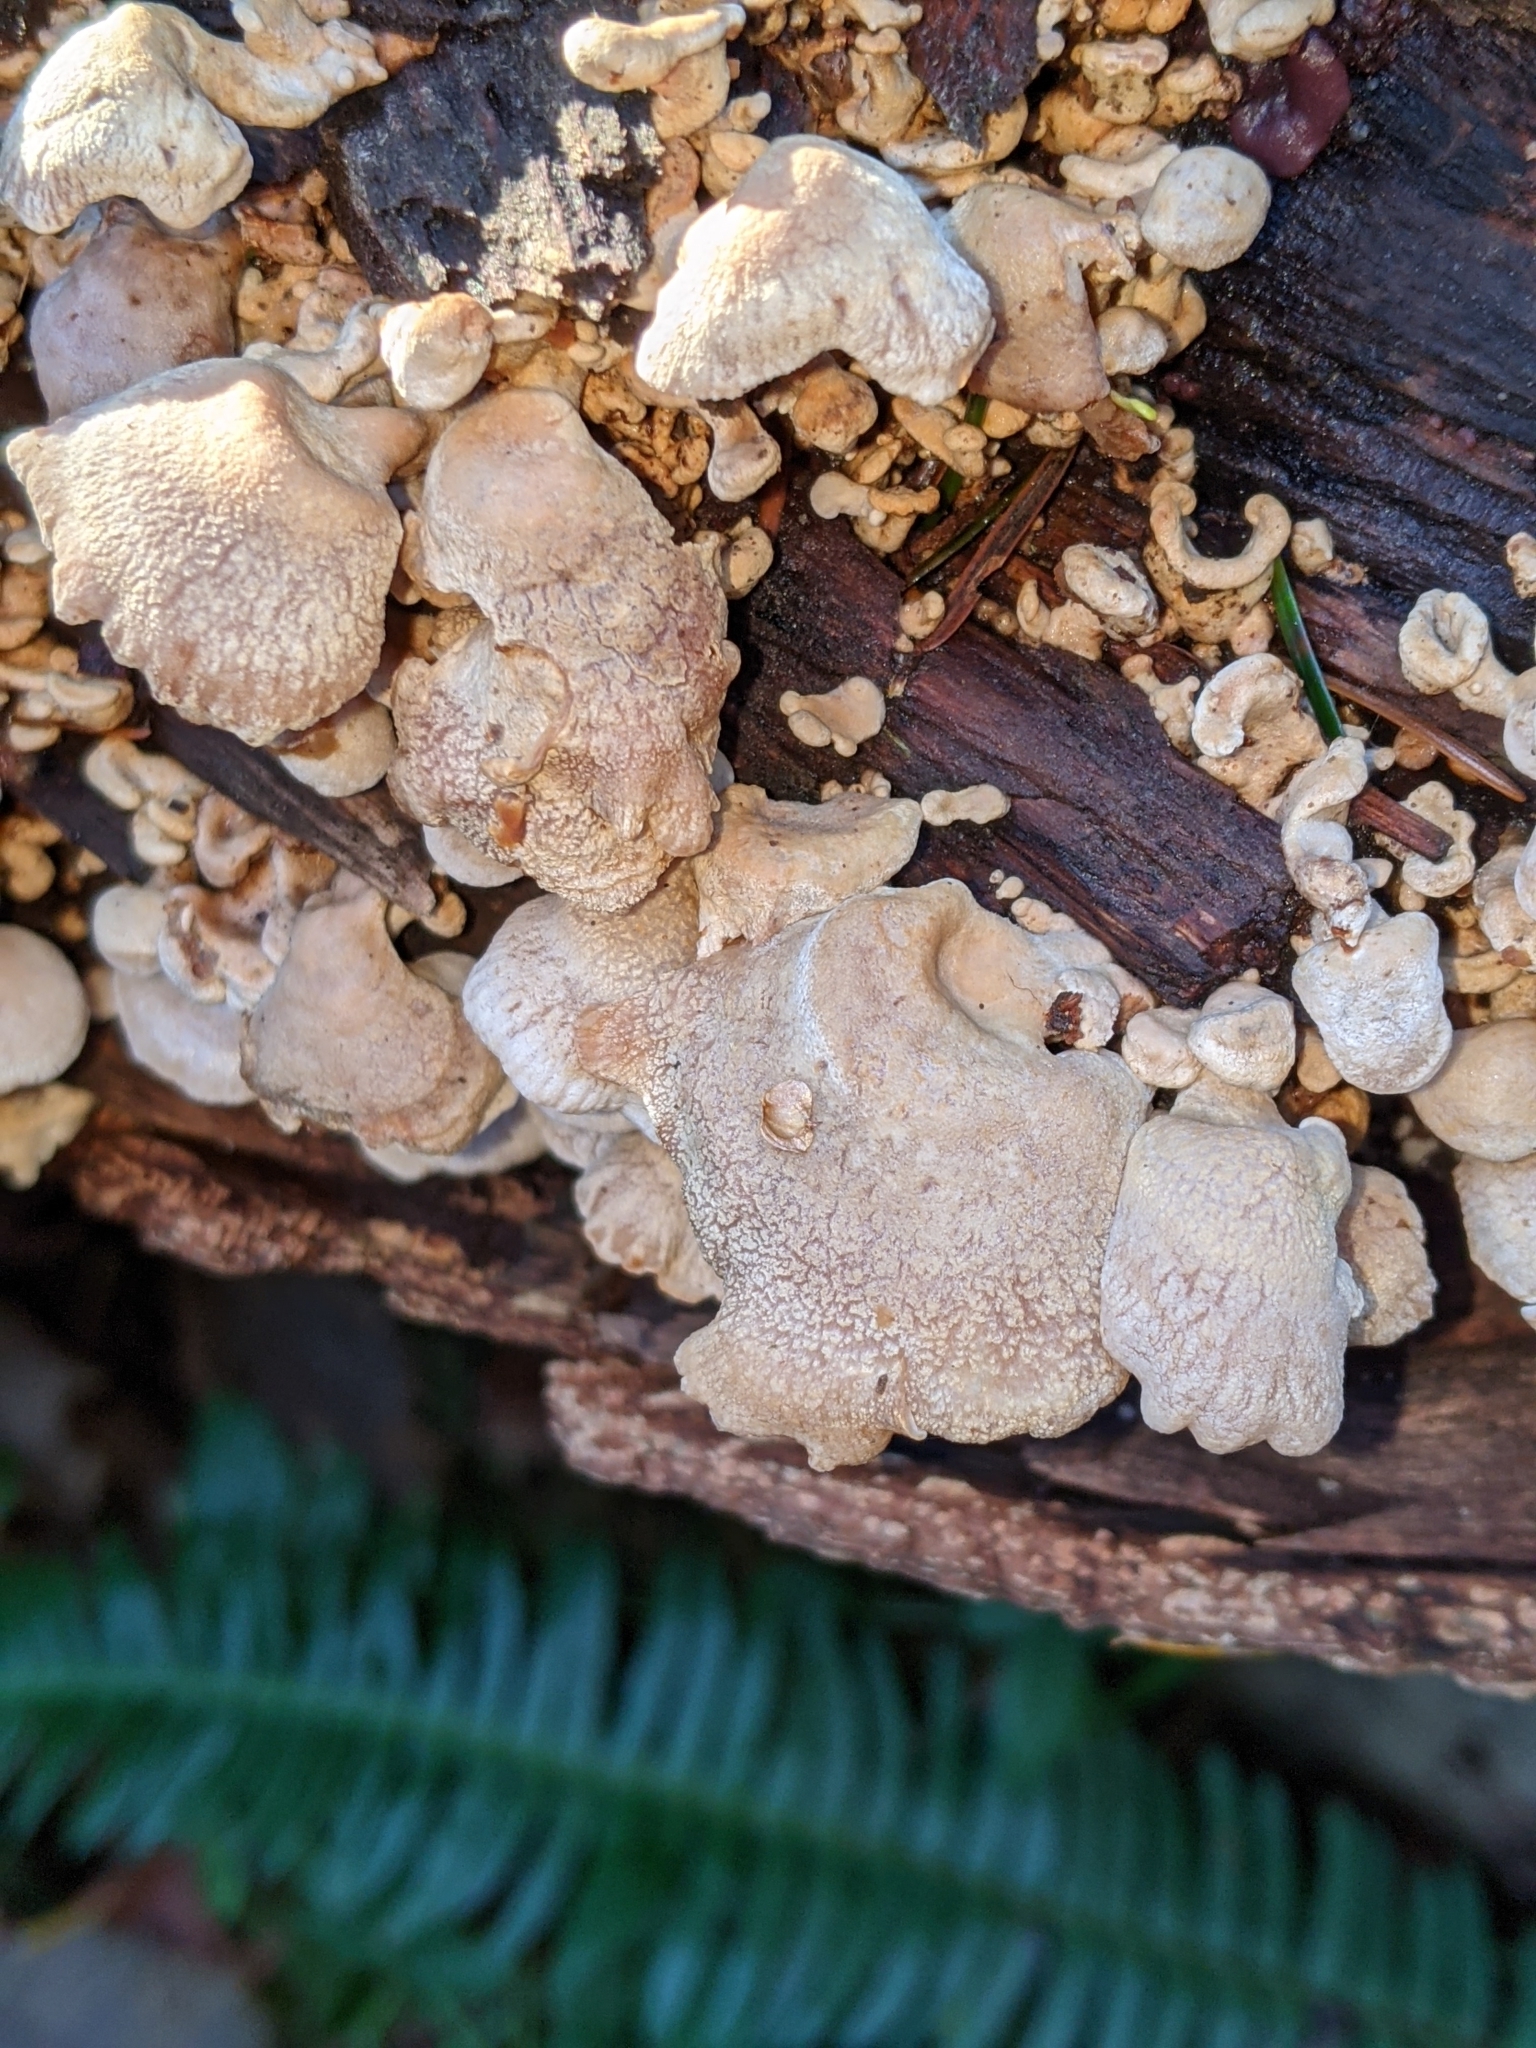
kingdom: Fungi
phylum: Basidiomycota
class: Agaricomycetes
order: Agaricales
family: Mycenaceae
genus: Panellus
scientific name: Panellus stipticus
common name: Bitter oysterling
